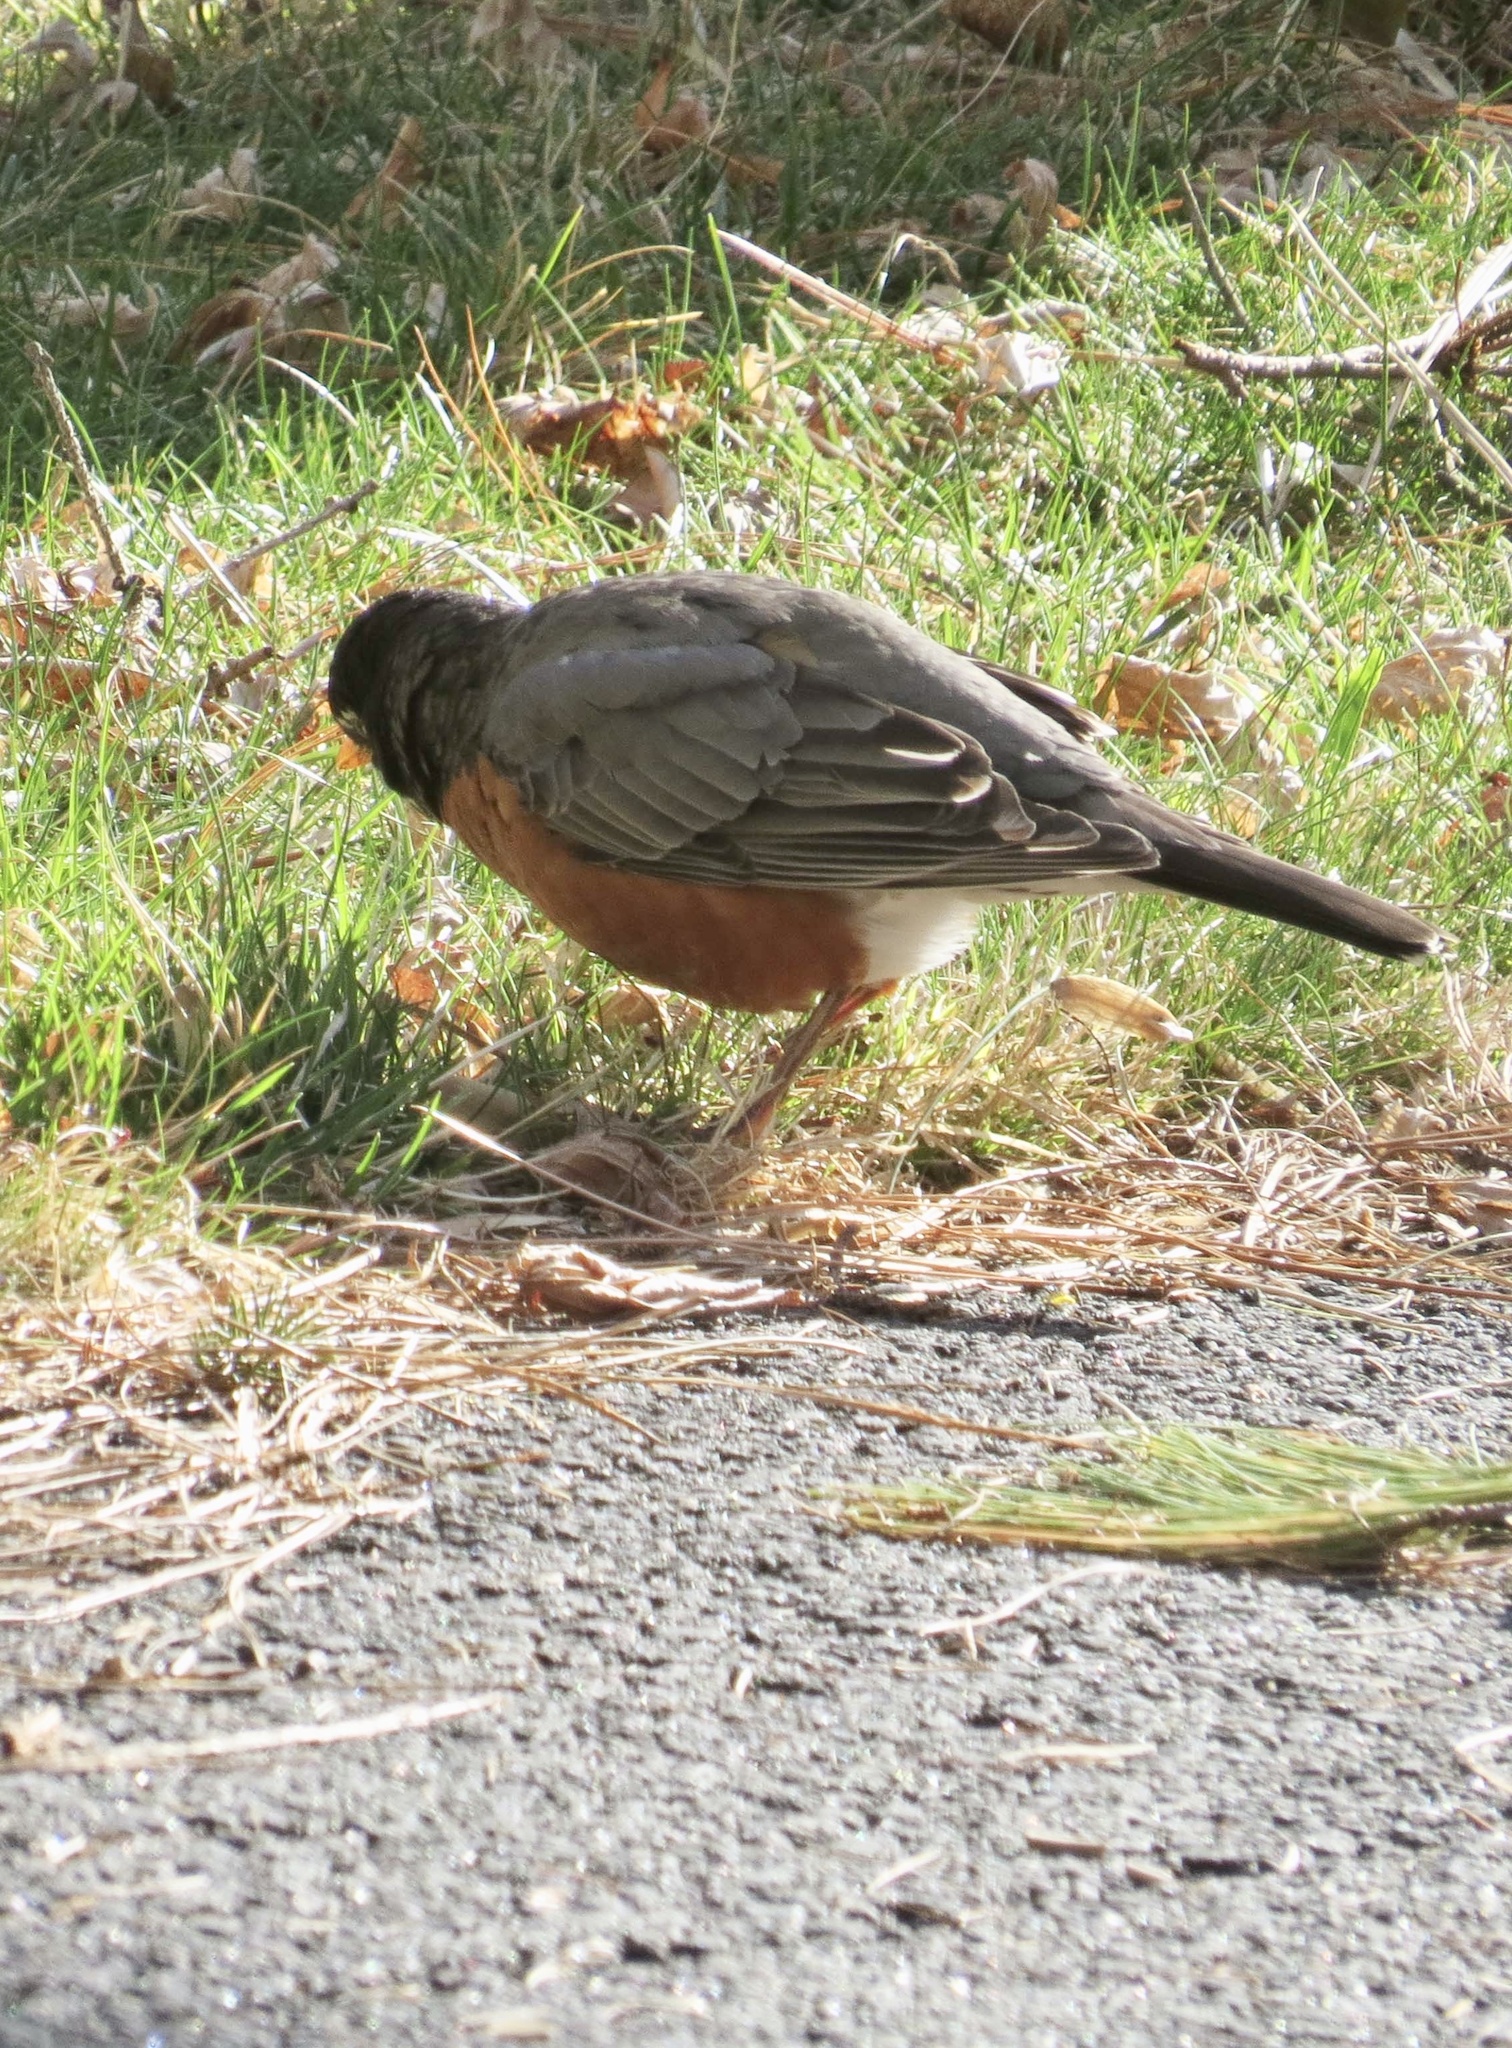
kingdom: Animalia
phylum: Chordata
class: Aves
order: Passeriformes
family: Turdidae
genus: Turdus
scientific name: Turdus migratorius
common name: American robin
